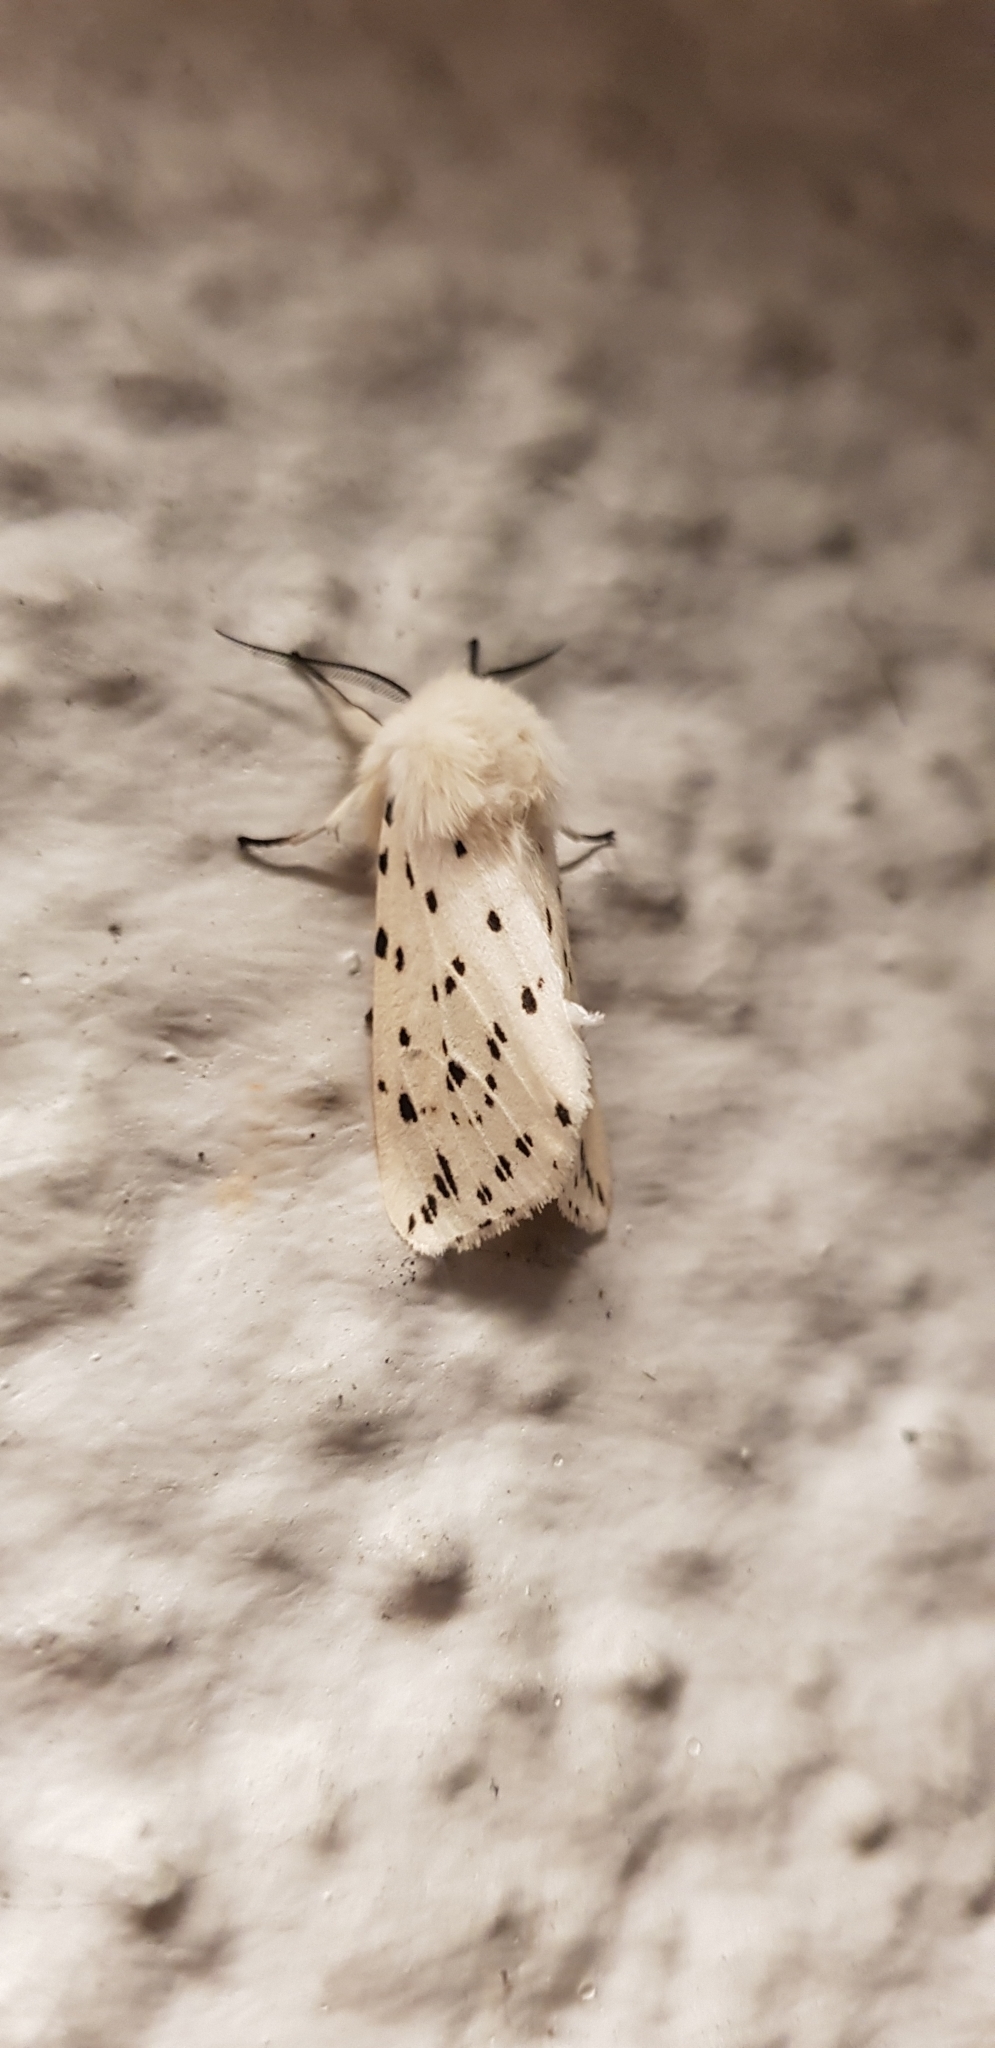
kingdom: Animalia
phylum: Arthropoda
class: Insecta
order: Lepidoptera
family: Erebidae
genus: Spilosoma
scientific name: Spilosoma lubricipeda
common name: White ermine
